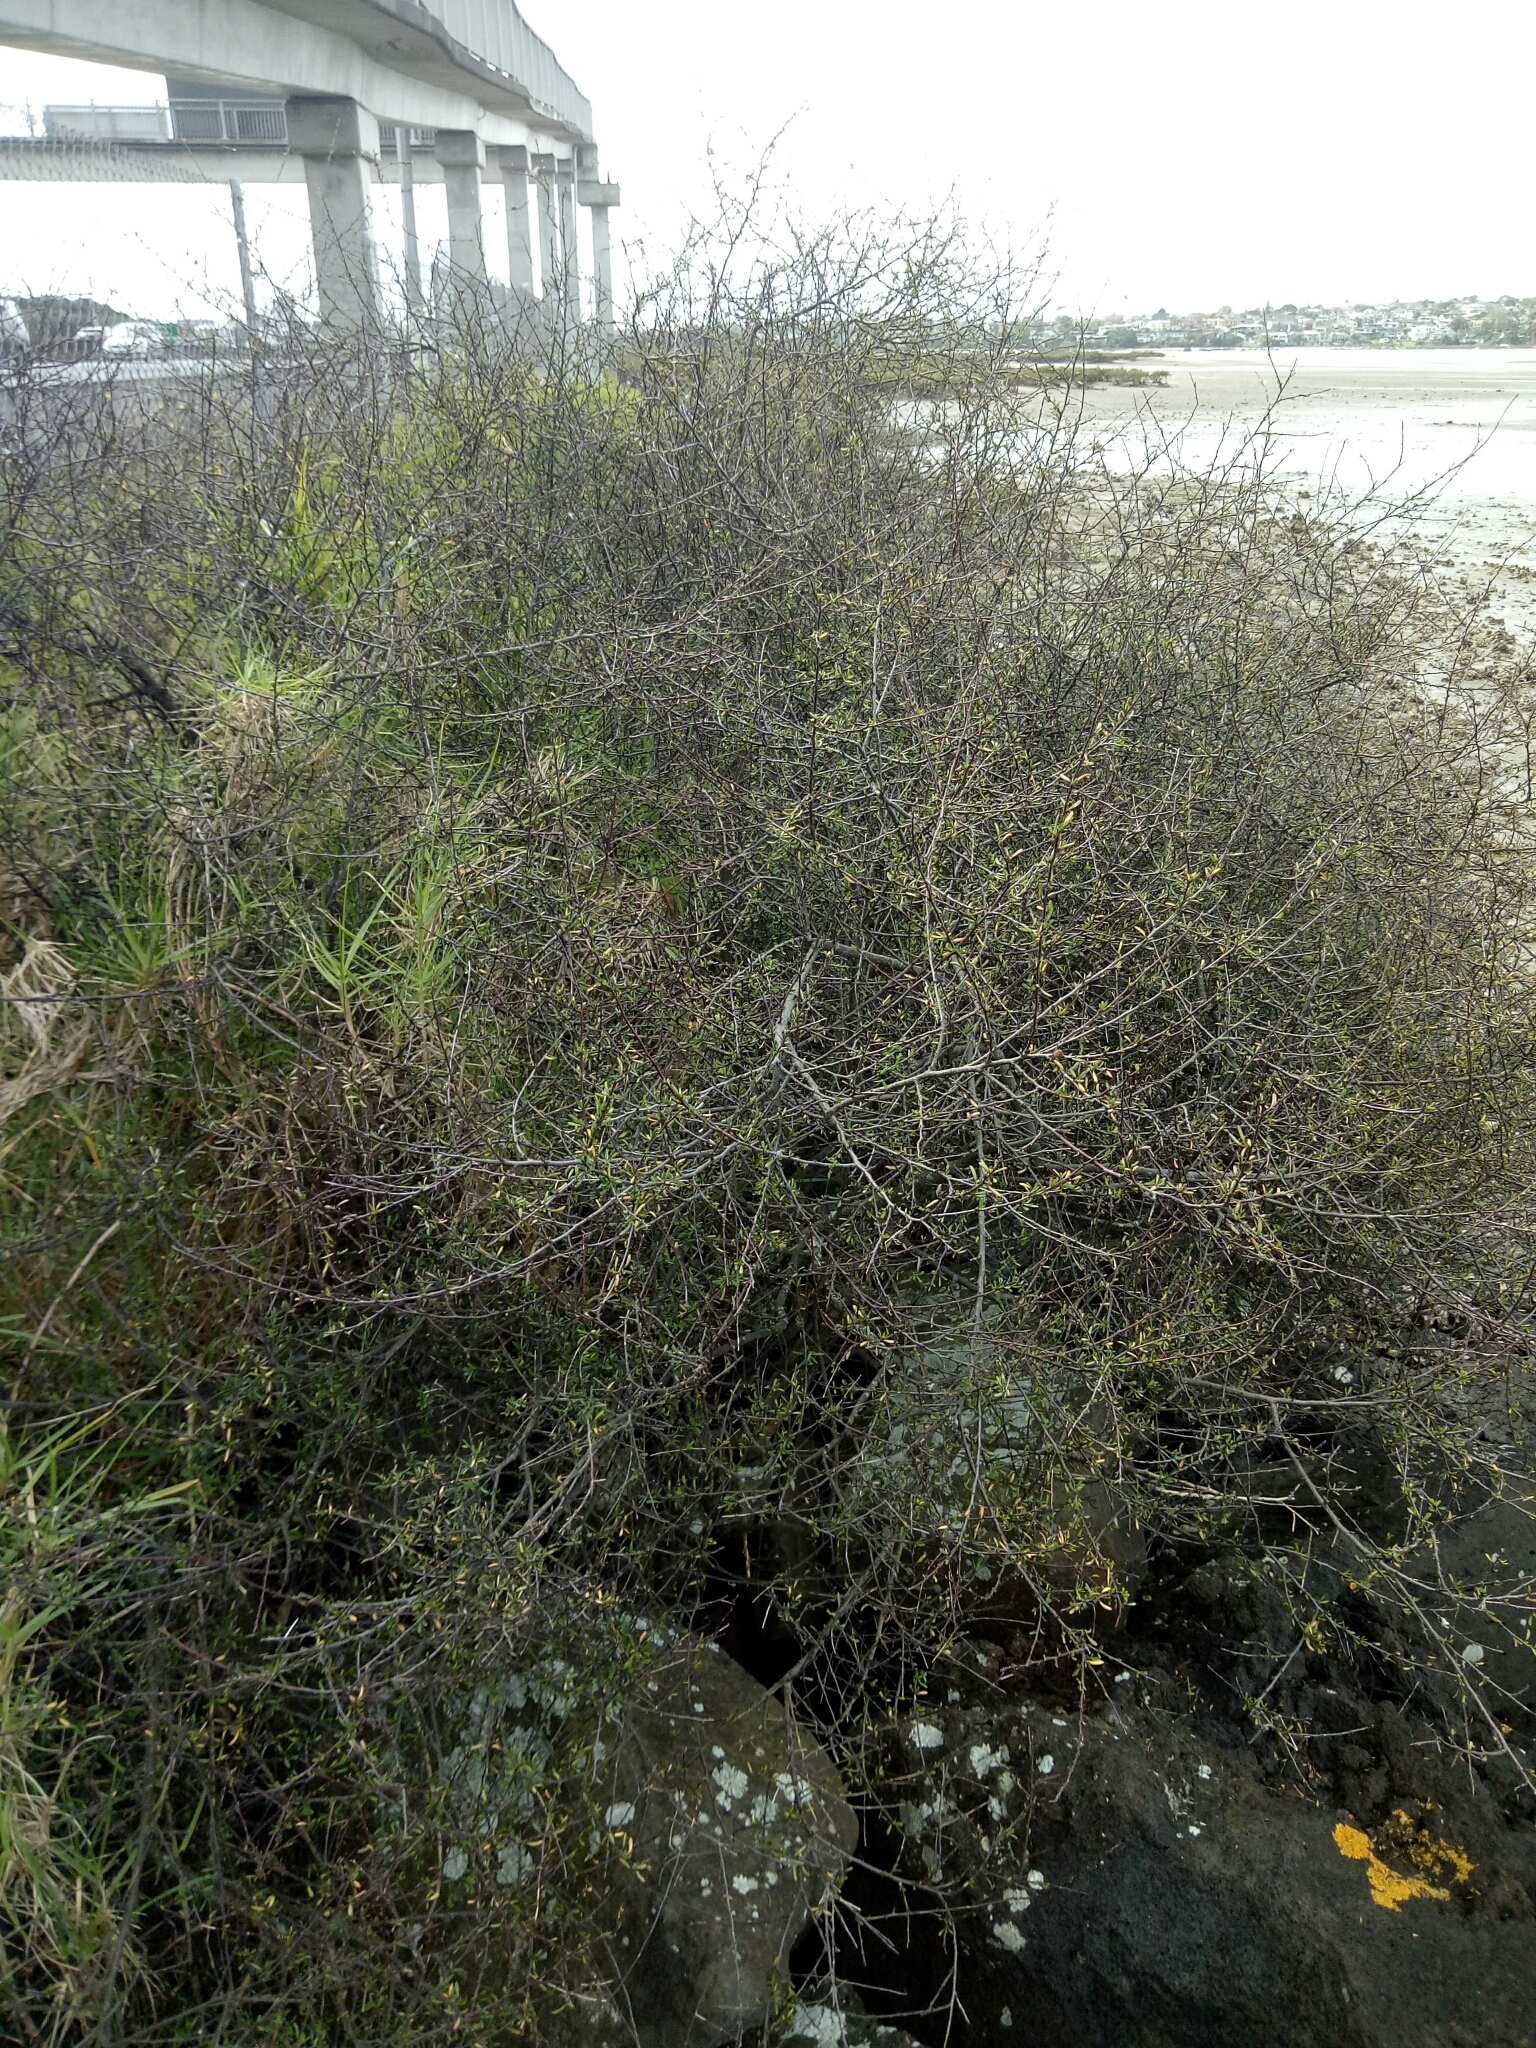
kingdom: Plantae
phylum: Tracheophyta
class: Magnoliopsida
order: Malvales
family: Malvaceae
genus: Plagianthus
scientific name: Plagianthus divaricatus
